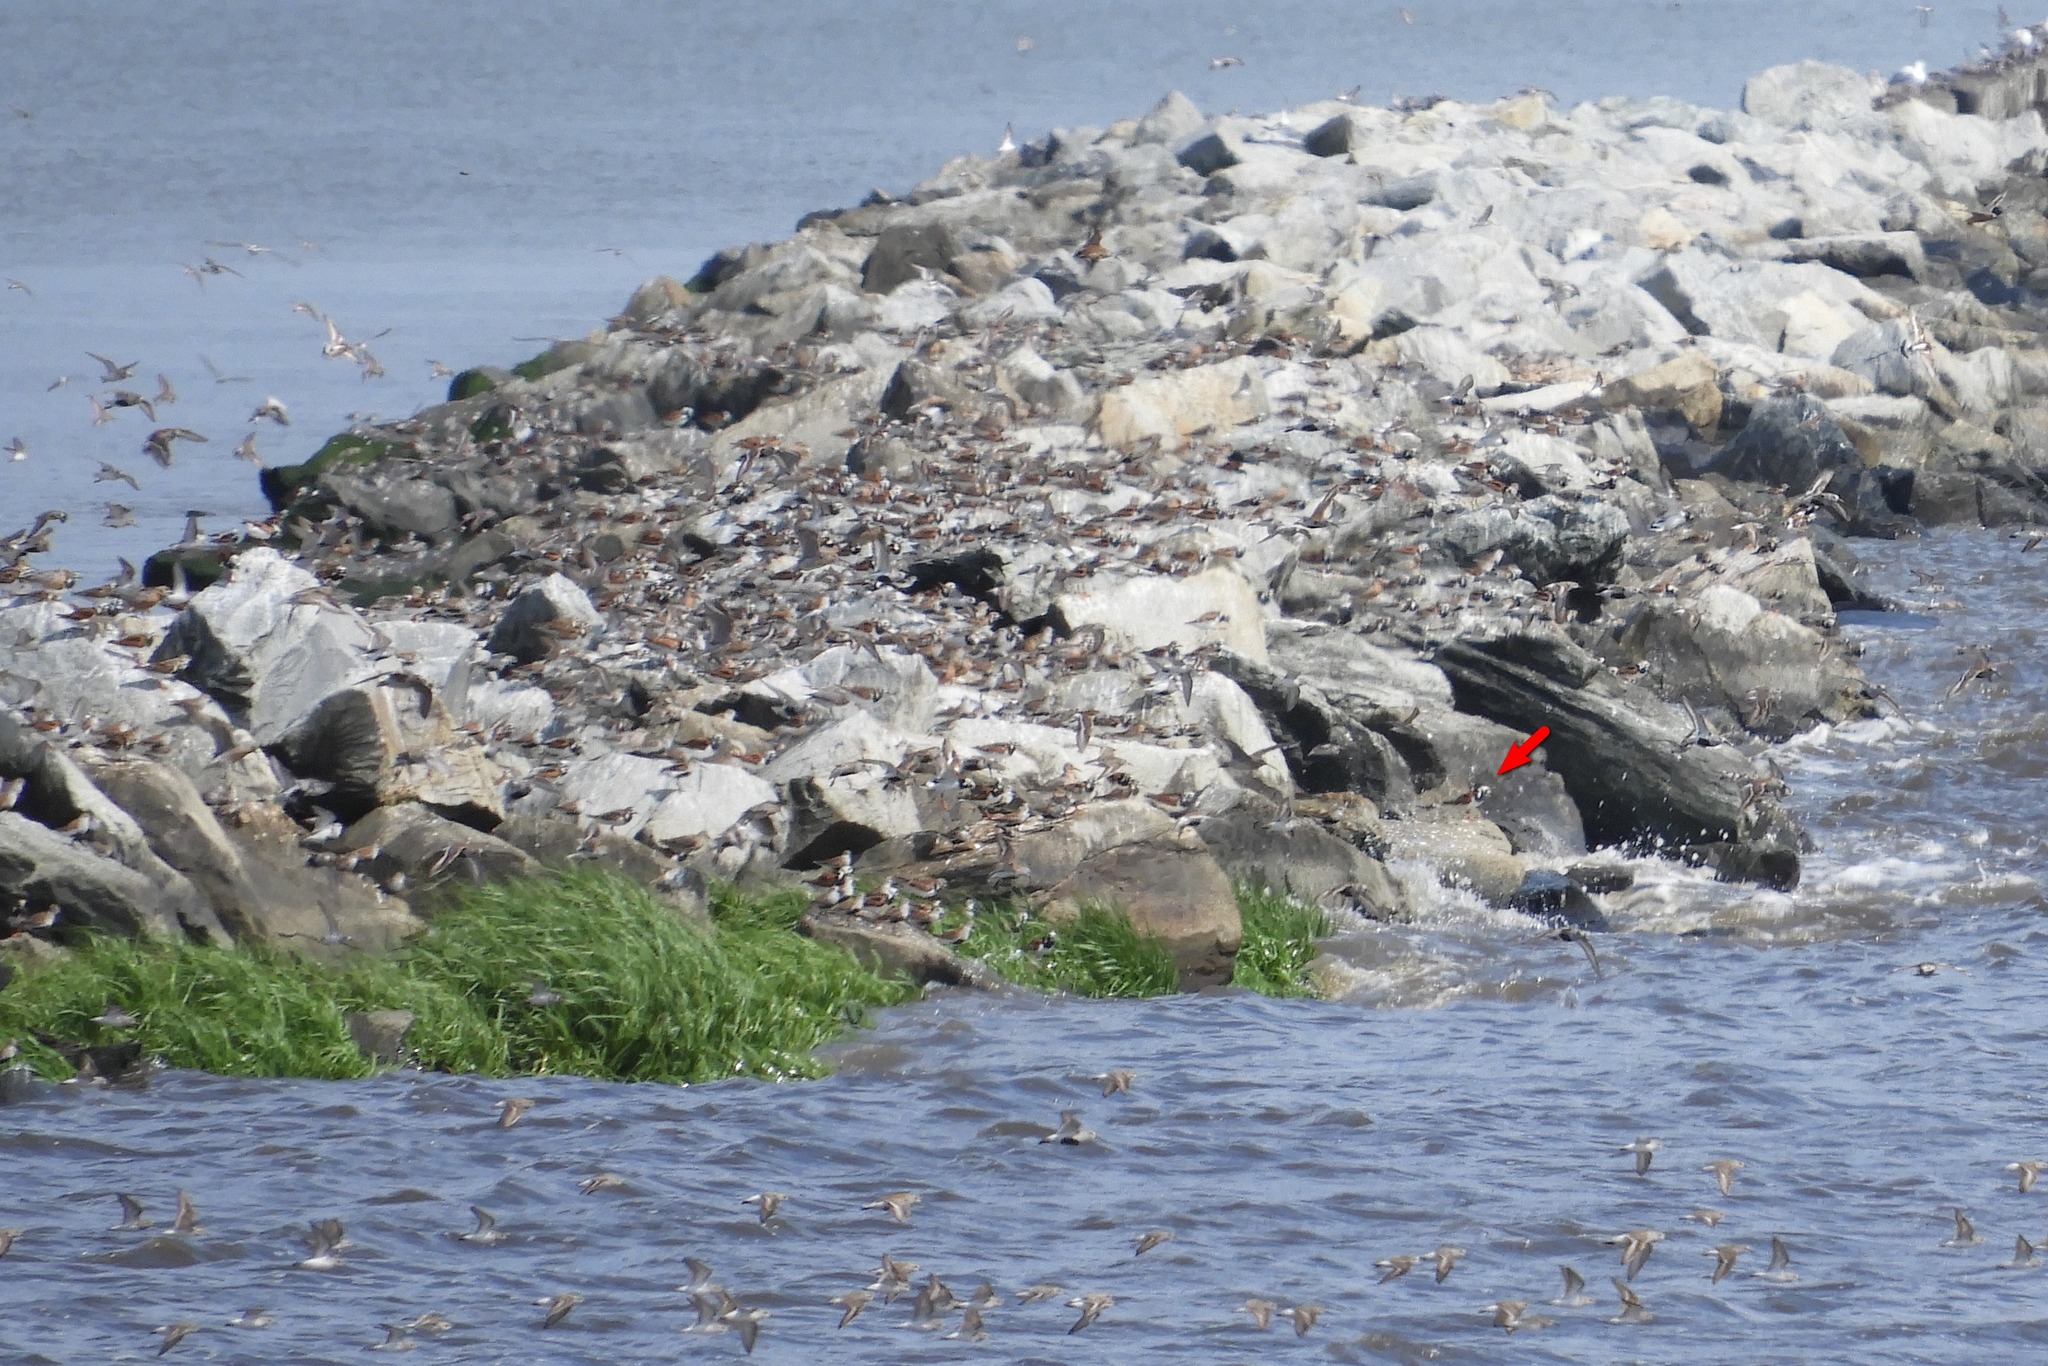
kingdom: Animalia
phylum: Chordata
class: Aves
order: Charadriiformes
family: Scolopacidae
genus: Arenaria
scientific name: Arenaria interpres
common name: Ruddy turnstone
